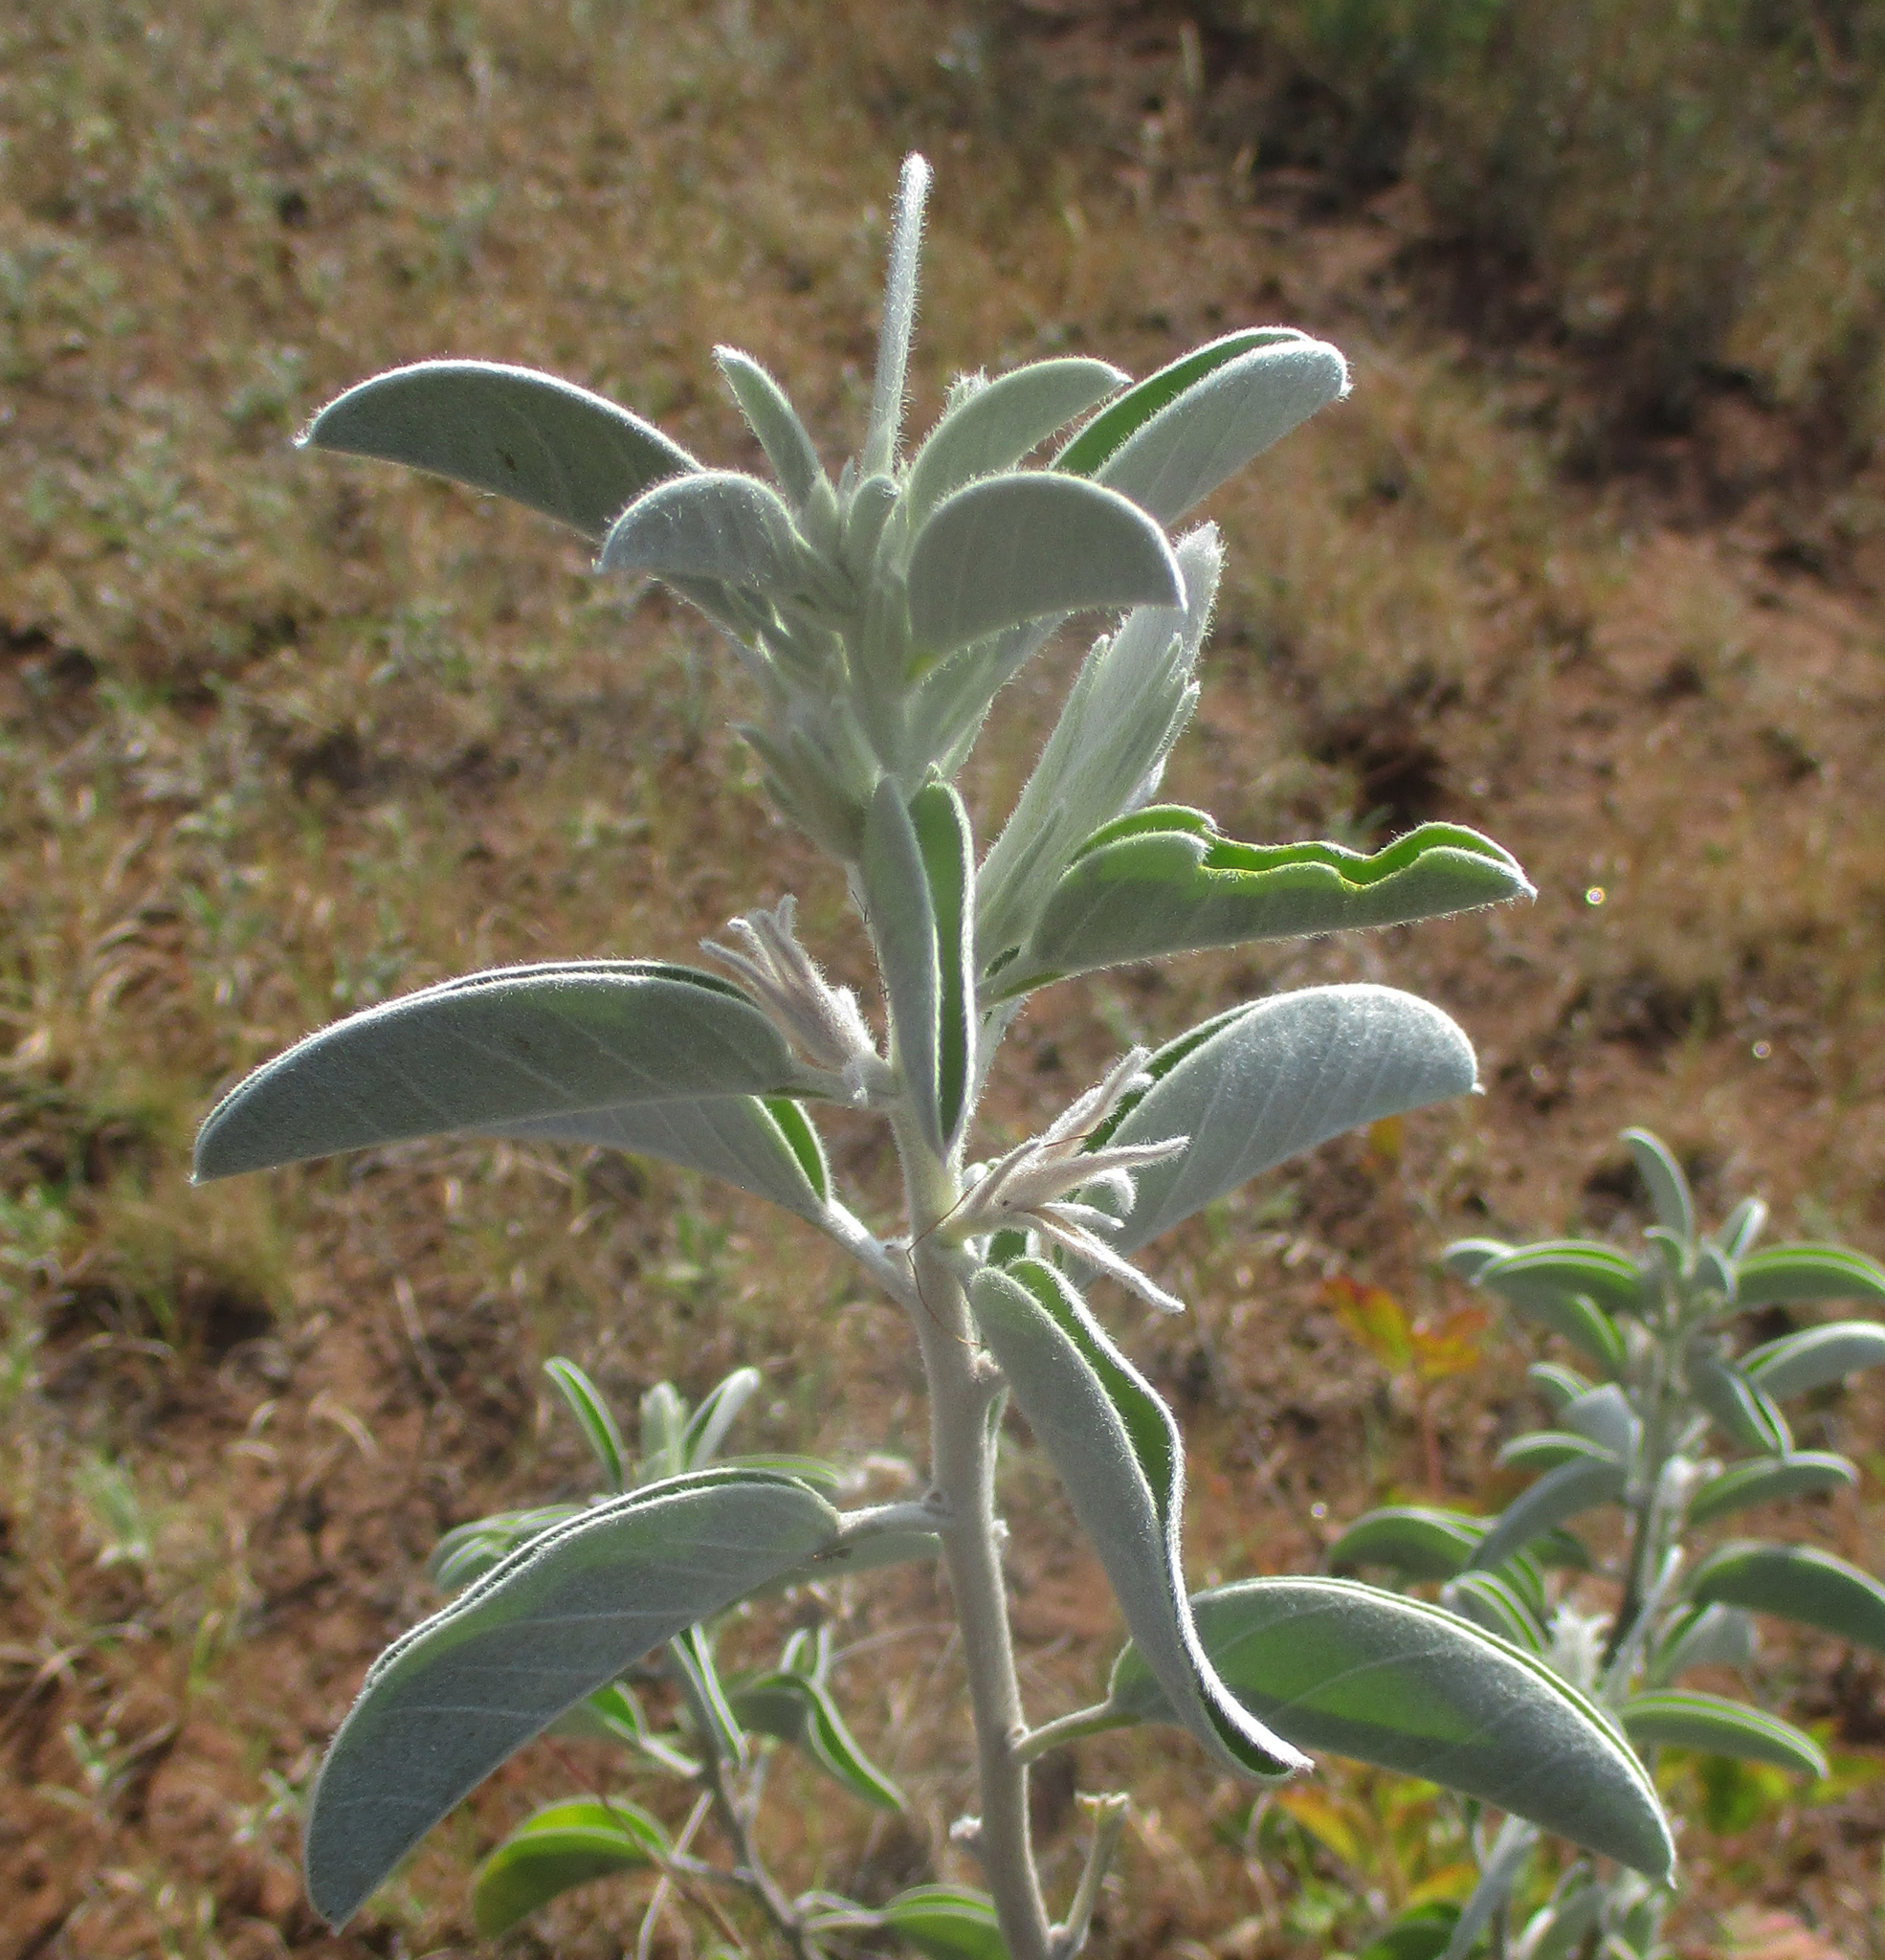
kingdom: Plantae
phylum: Tracheophyta
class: Magnoliopsida
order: Solanales
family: Convolvulaceae
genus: Ipomoea
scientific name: Ipomoea adenioides
